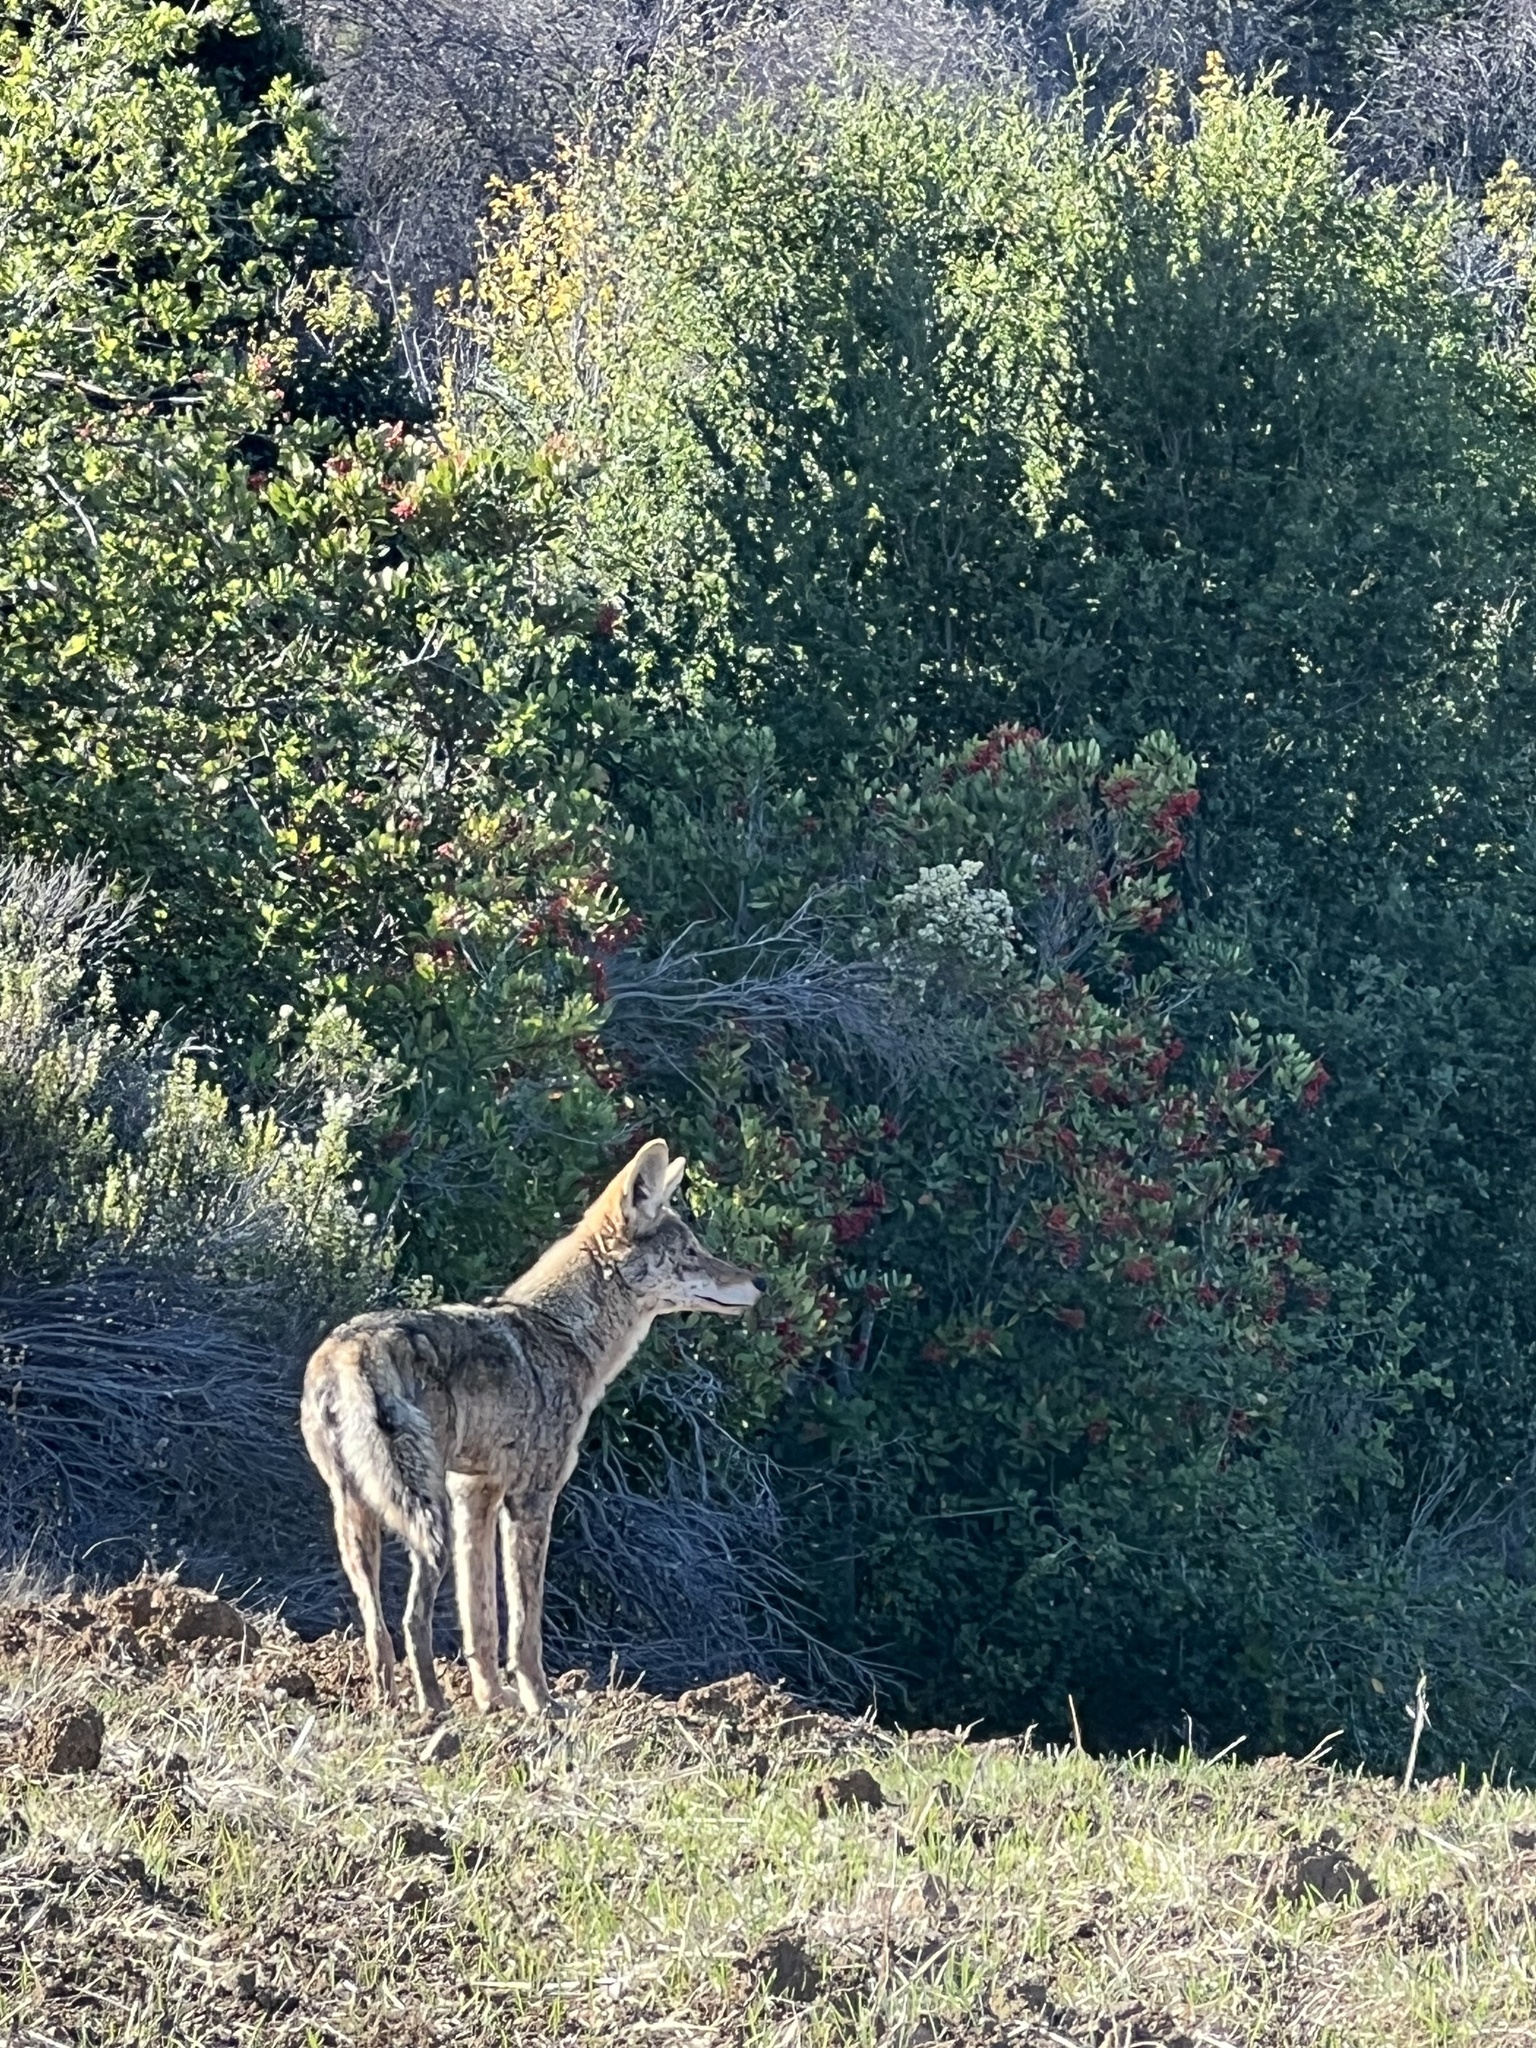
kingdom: Animalia
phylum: Chordata
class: Mammalia
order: Carnivora
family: Canidae
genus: Canis
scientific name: Canis latrans
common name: Coyote
